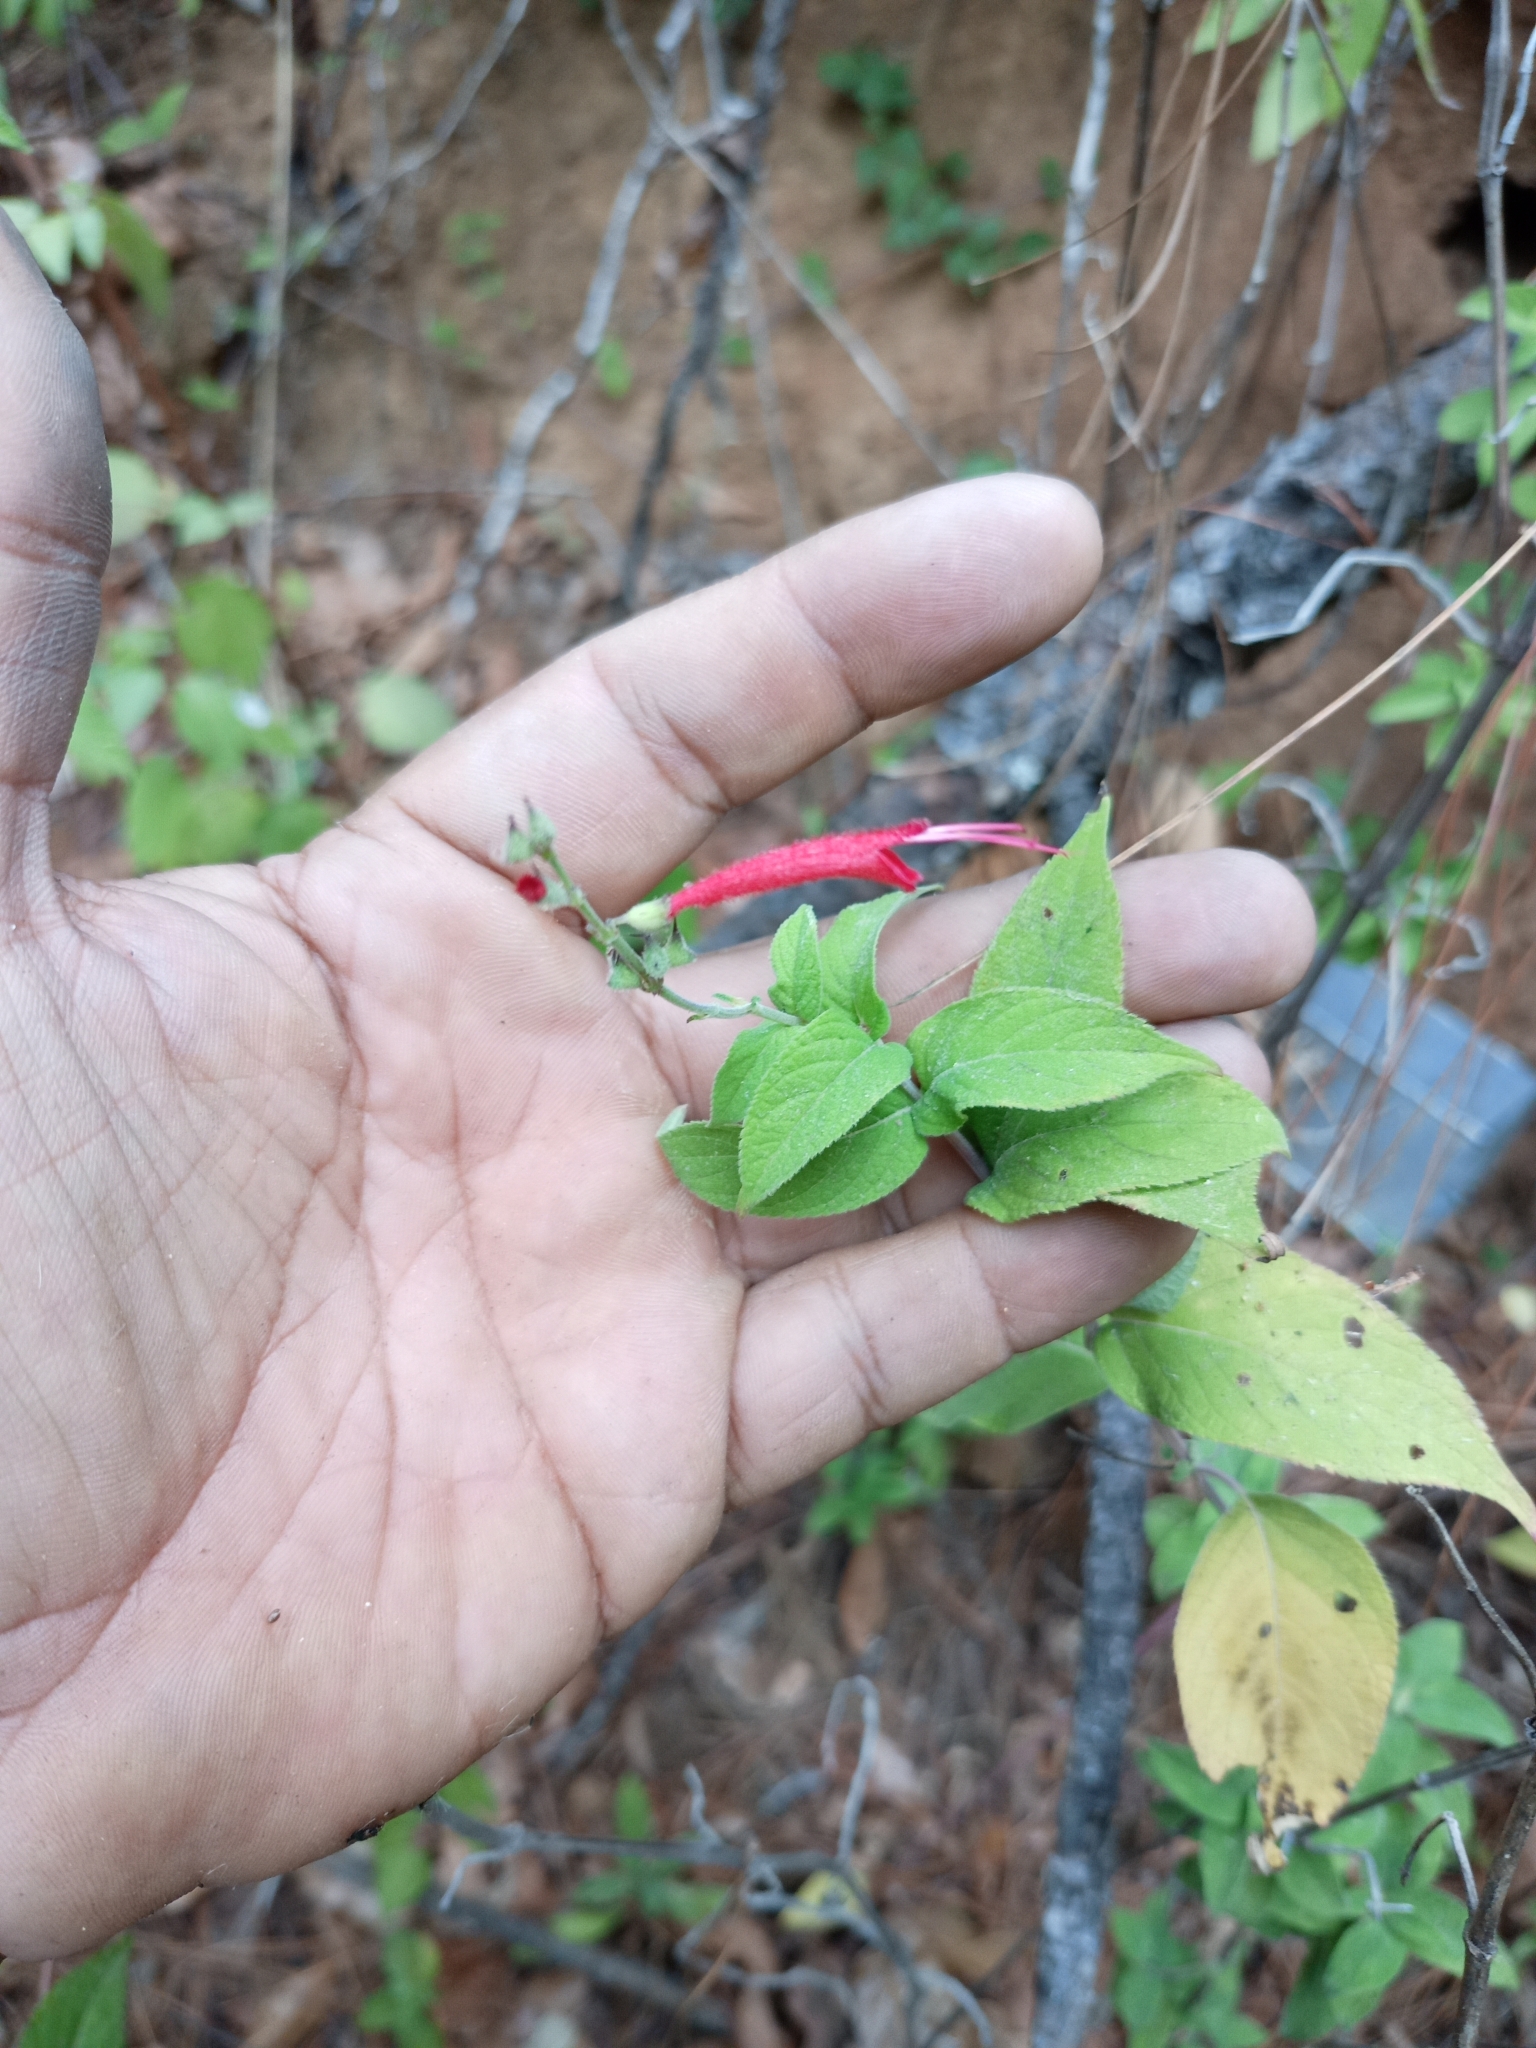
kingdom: Plantae
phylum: Tracheophyta
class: Magnoliopsida
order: Lamiales
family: Lamiaceae
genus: Salvia
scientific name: Salvia cinnabarina
